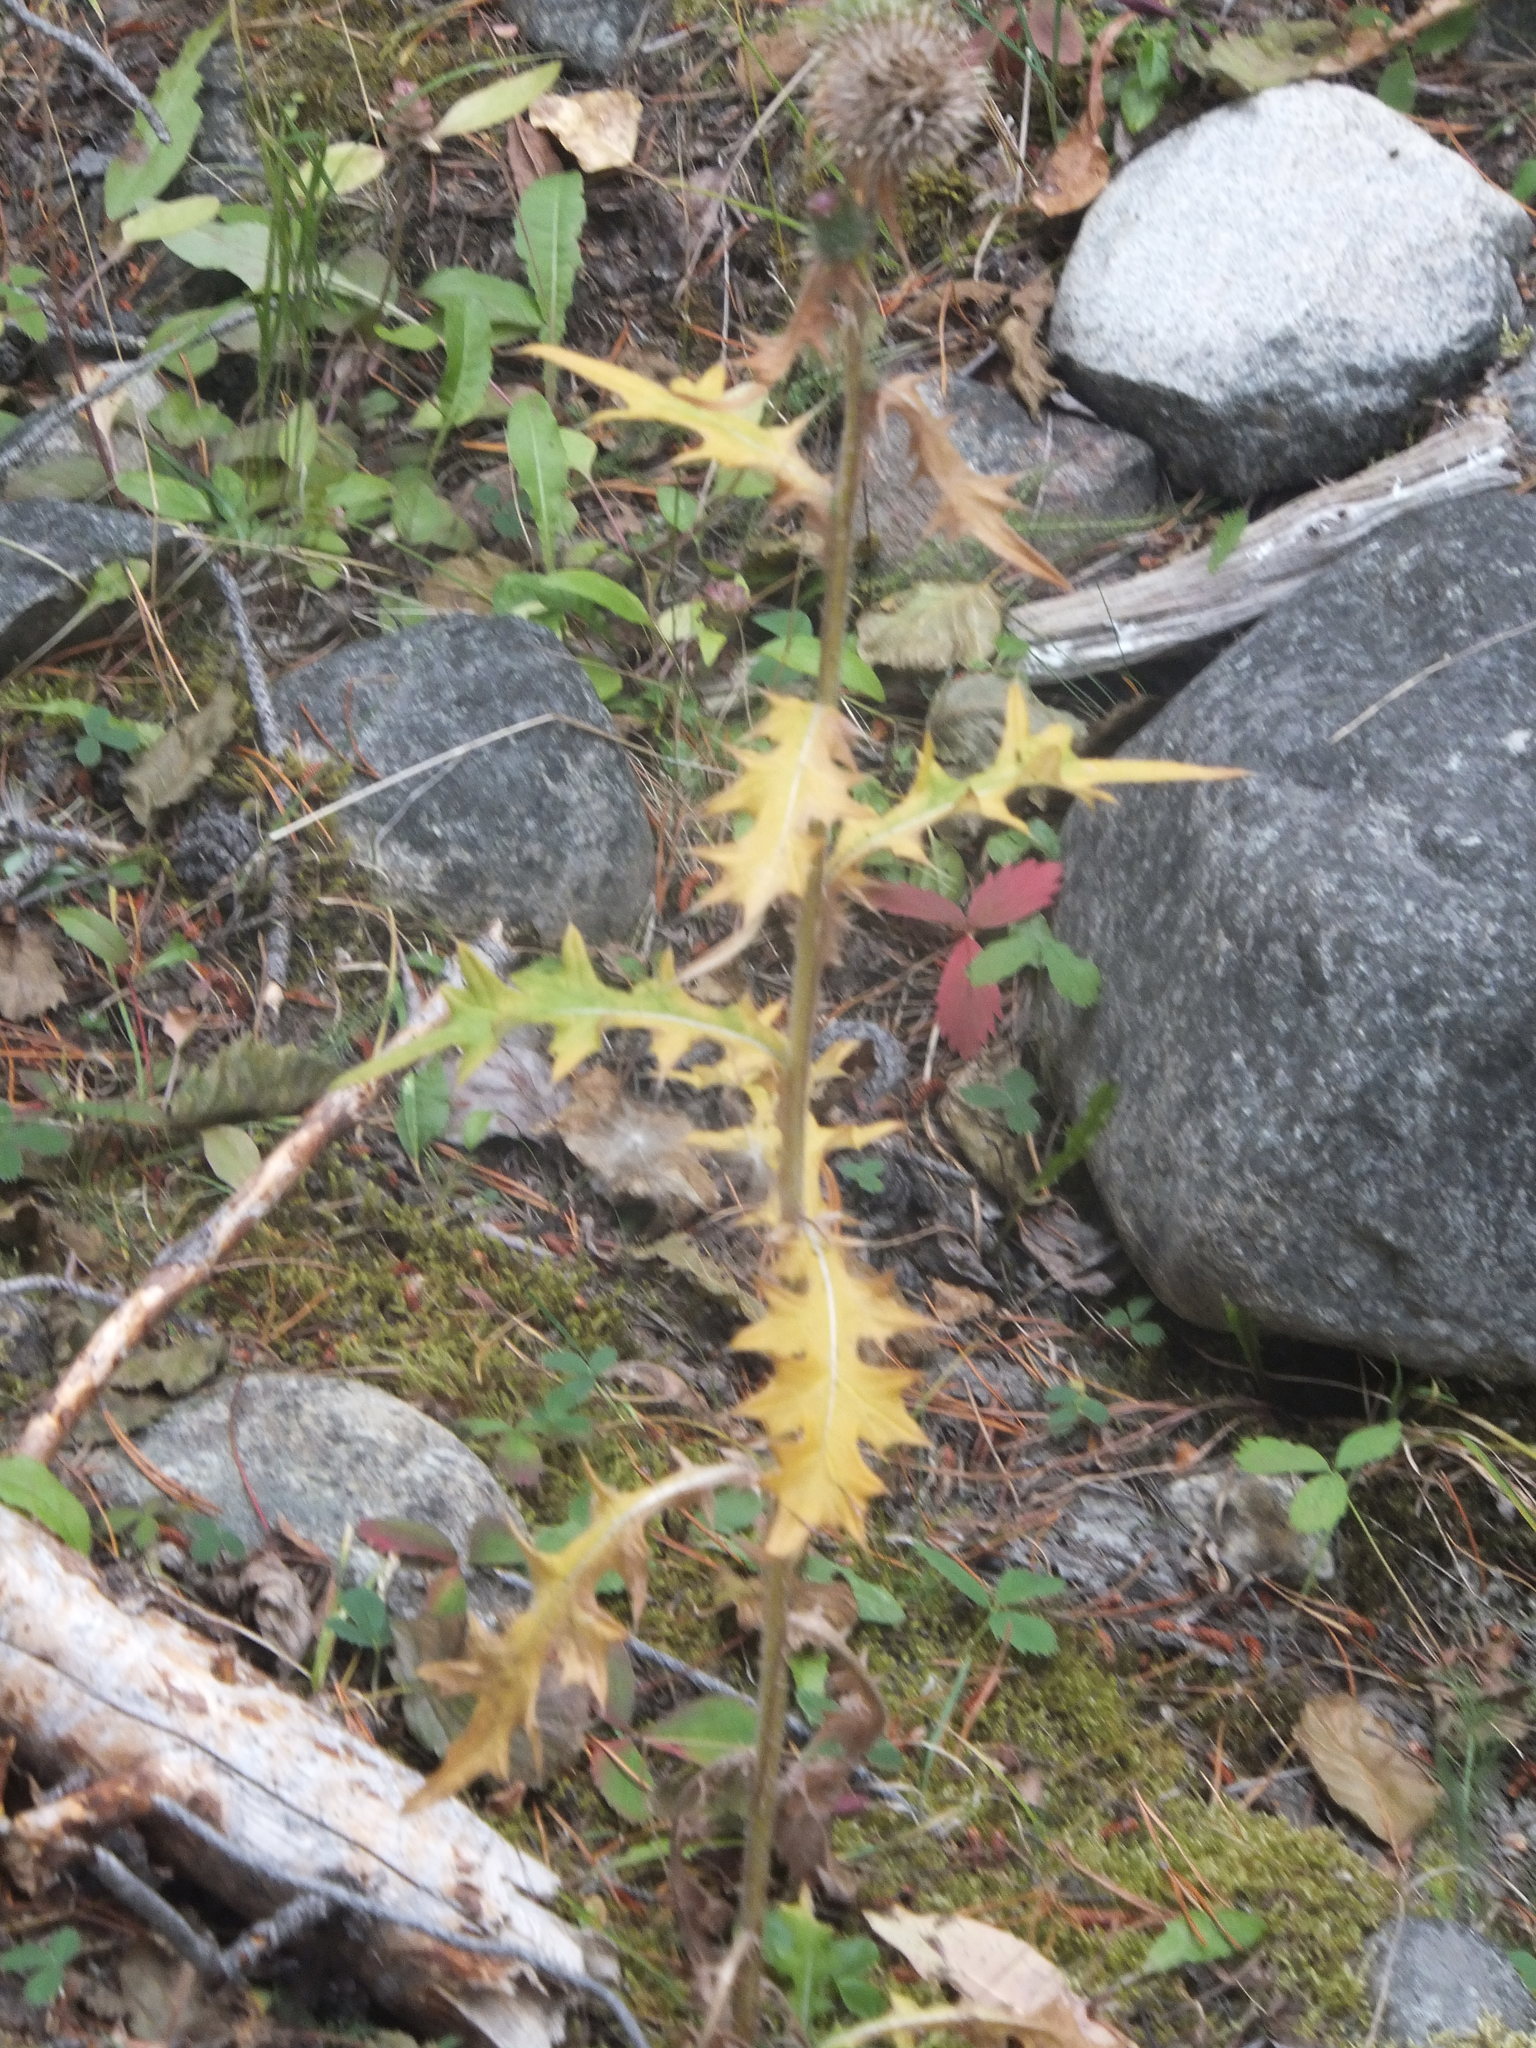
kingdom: Plantae
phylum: Tracheophyta
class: Magnoliopsida
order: Asterales
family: Asteraceae
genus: Cirsium
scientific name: Cirsium vulgare
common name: Bull thistle
